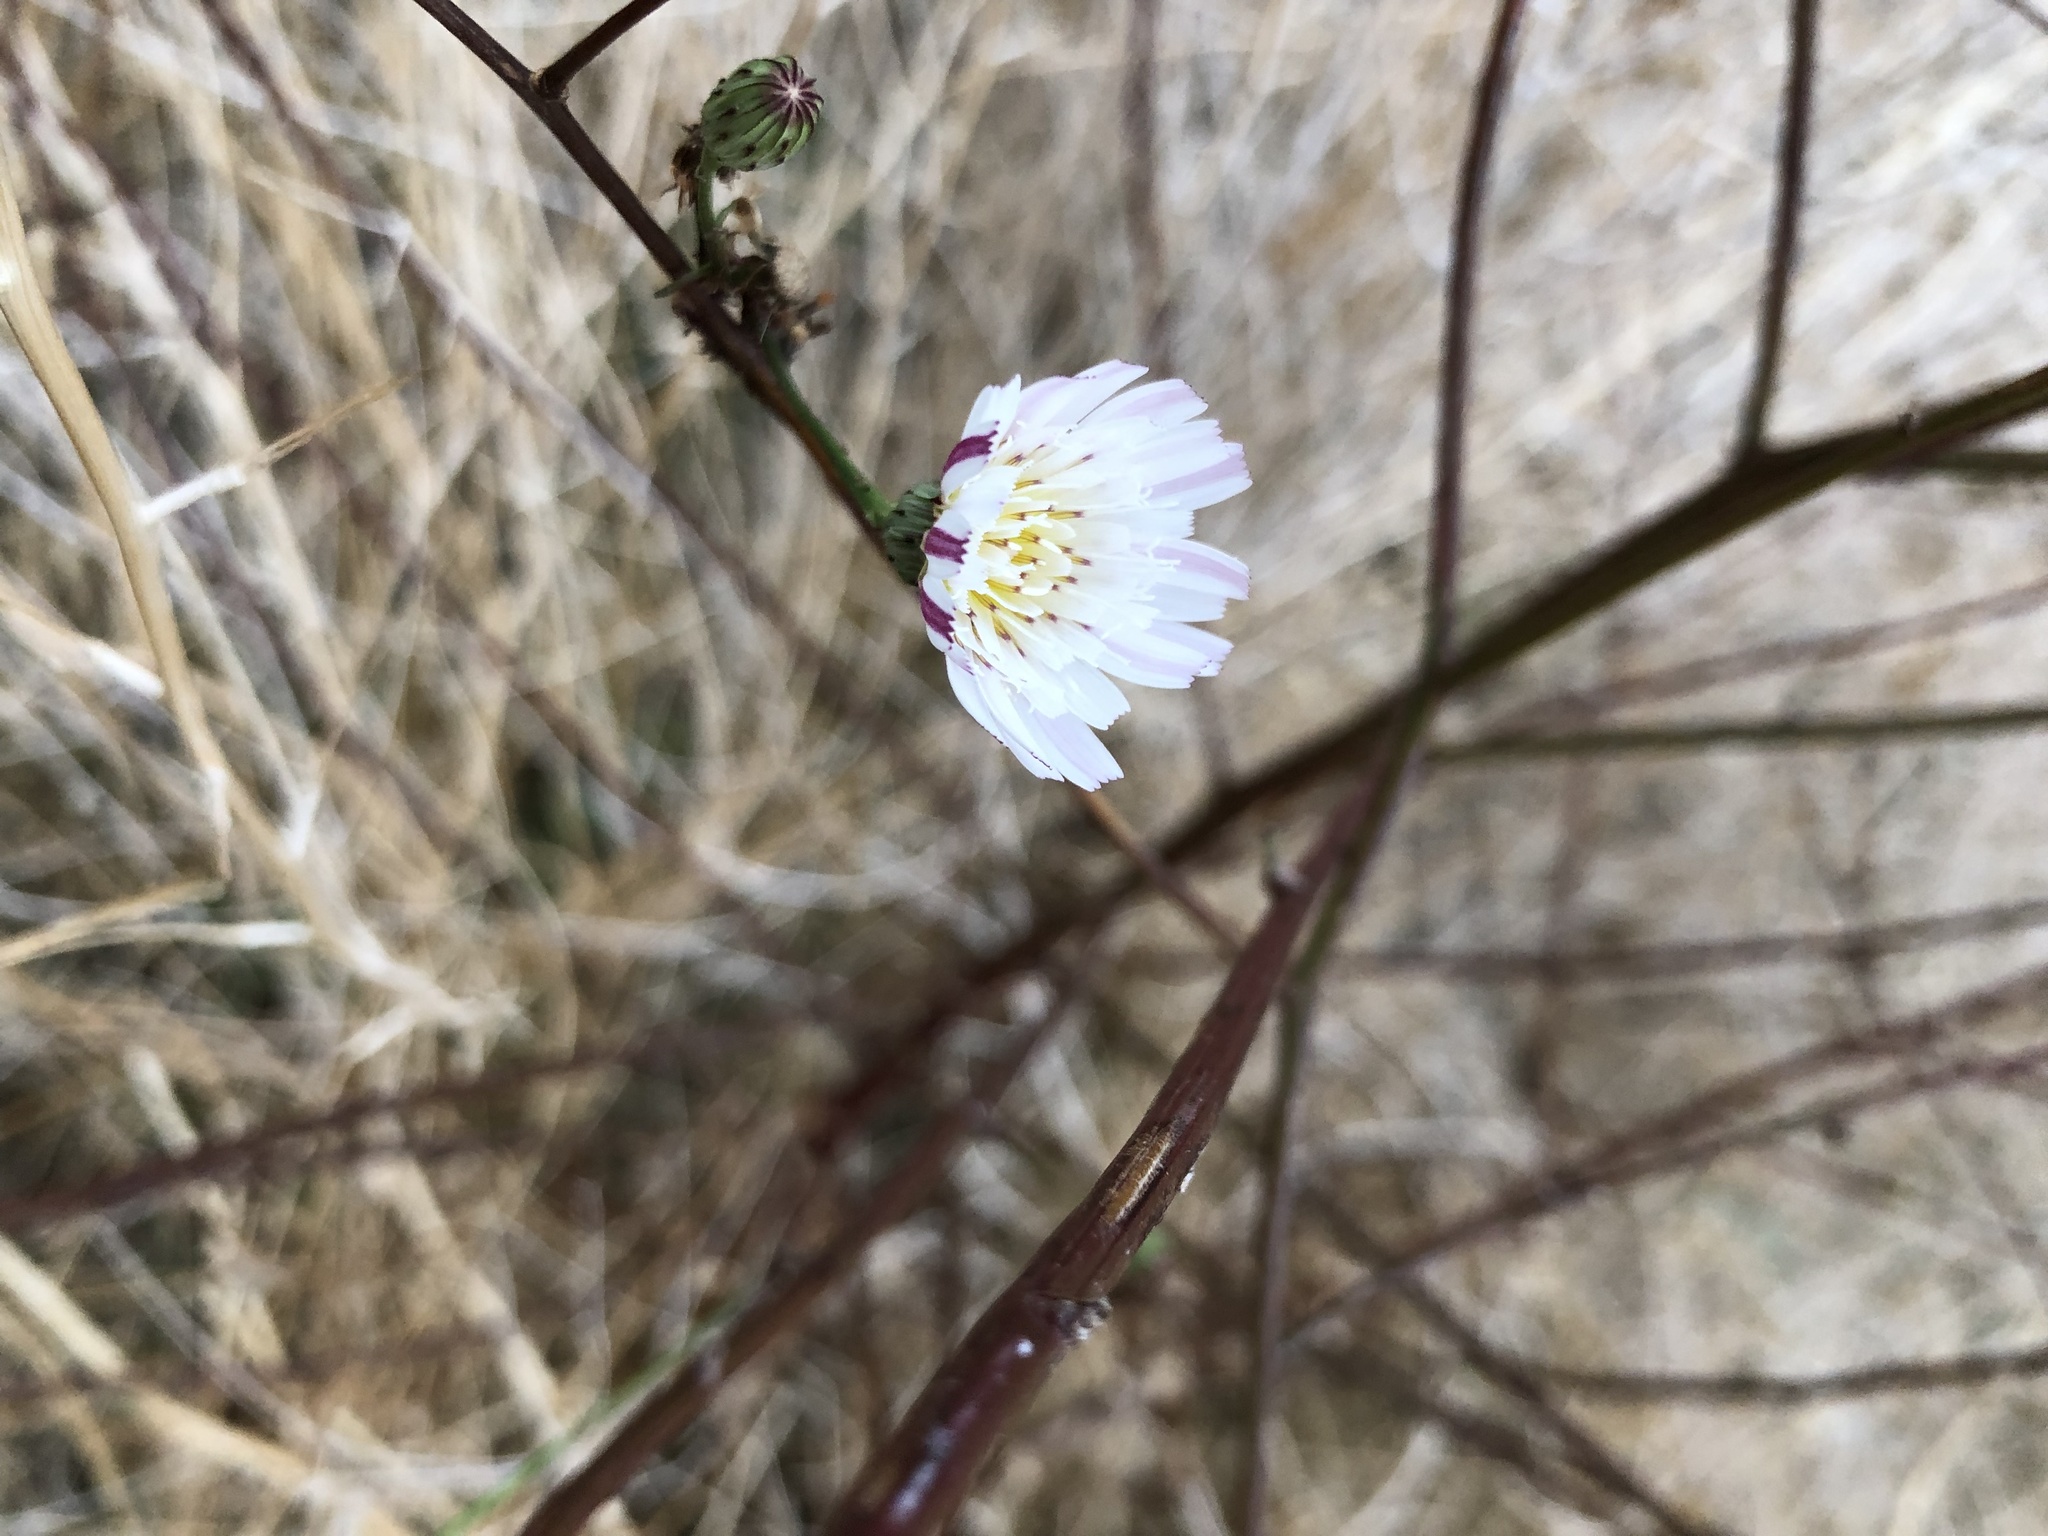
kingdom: Plantae
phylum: Tracheophyta
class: Magnoliopsida
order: Asterales
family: Asteraceae
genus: Malacothrix
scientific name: Malacothrix saxatilis
